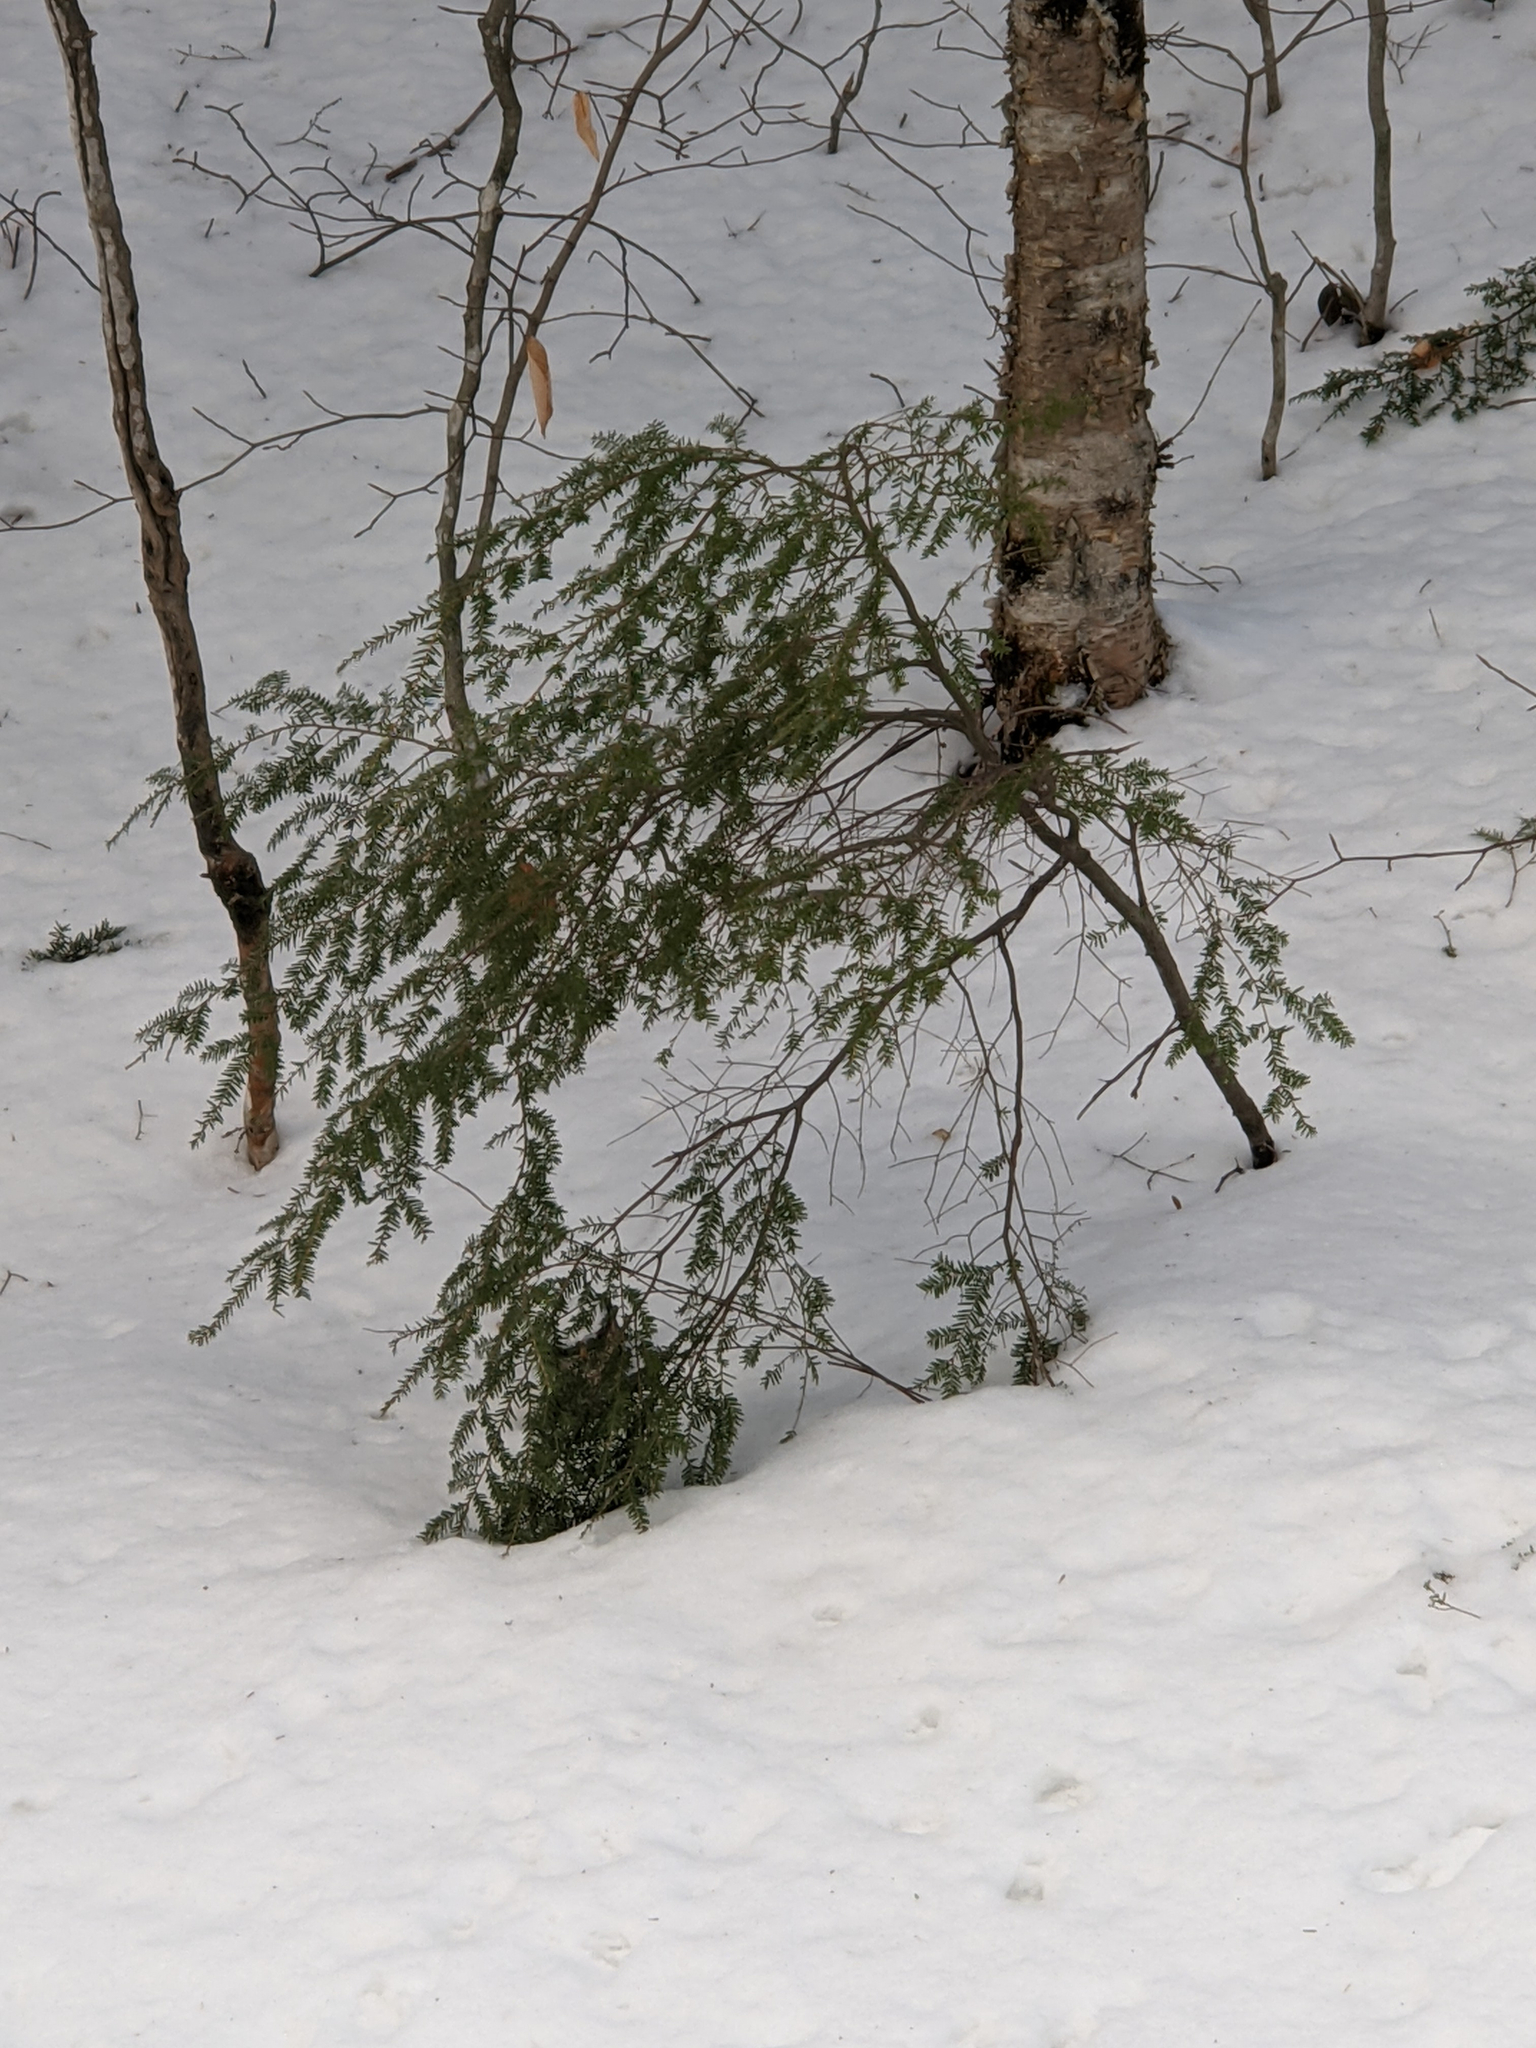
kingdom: Plantae
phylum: Tracheophyta
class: Pinopsida
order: Pinales
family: Pinaceae
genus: Tsuga
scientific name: Tsuga canadensis
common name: Eastern hemlock
